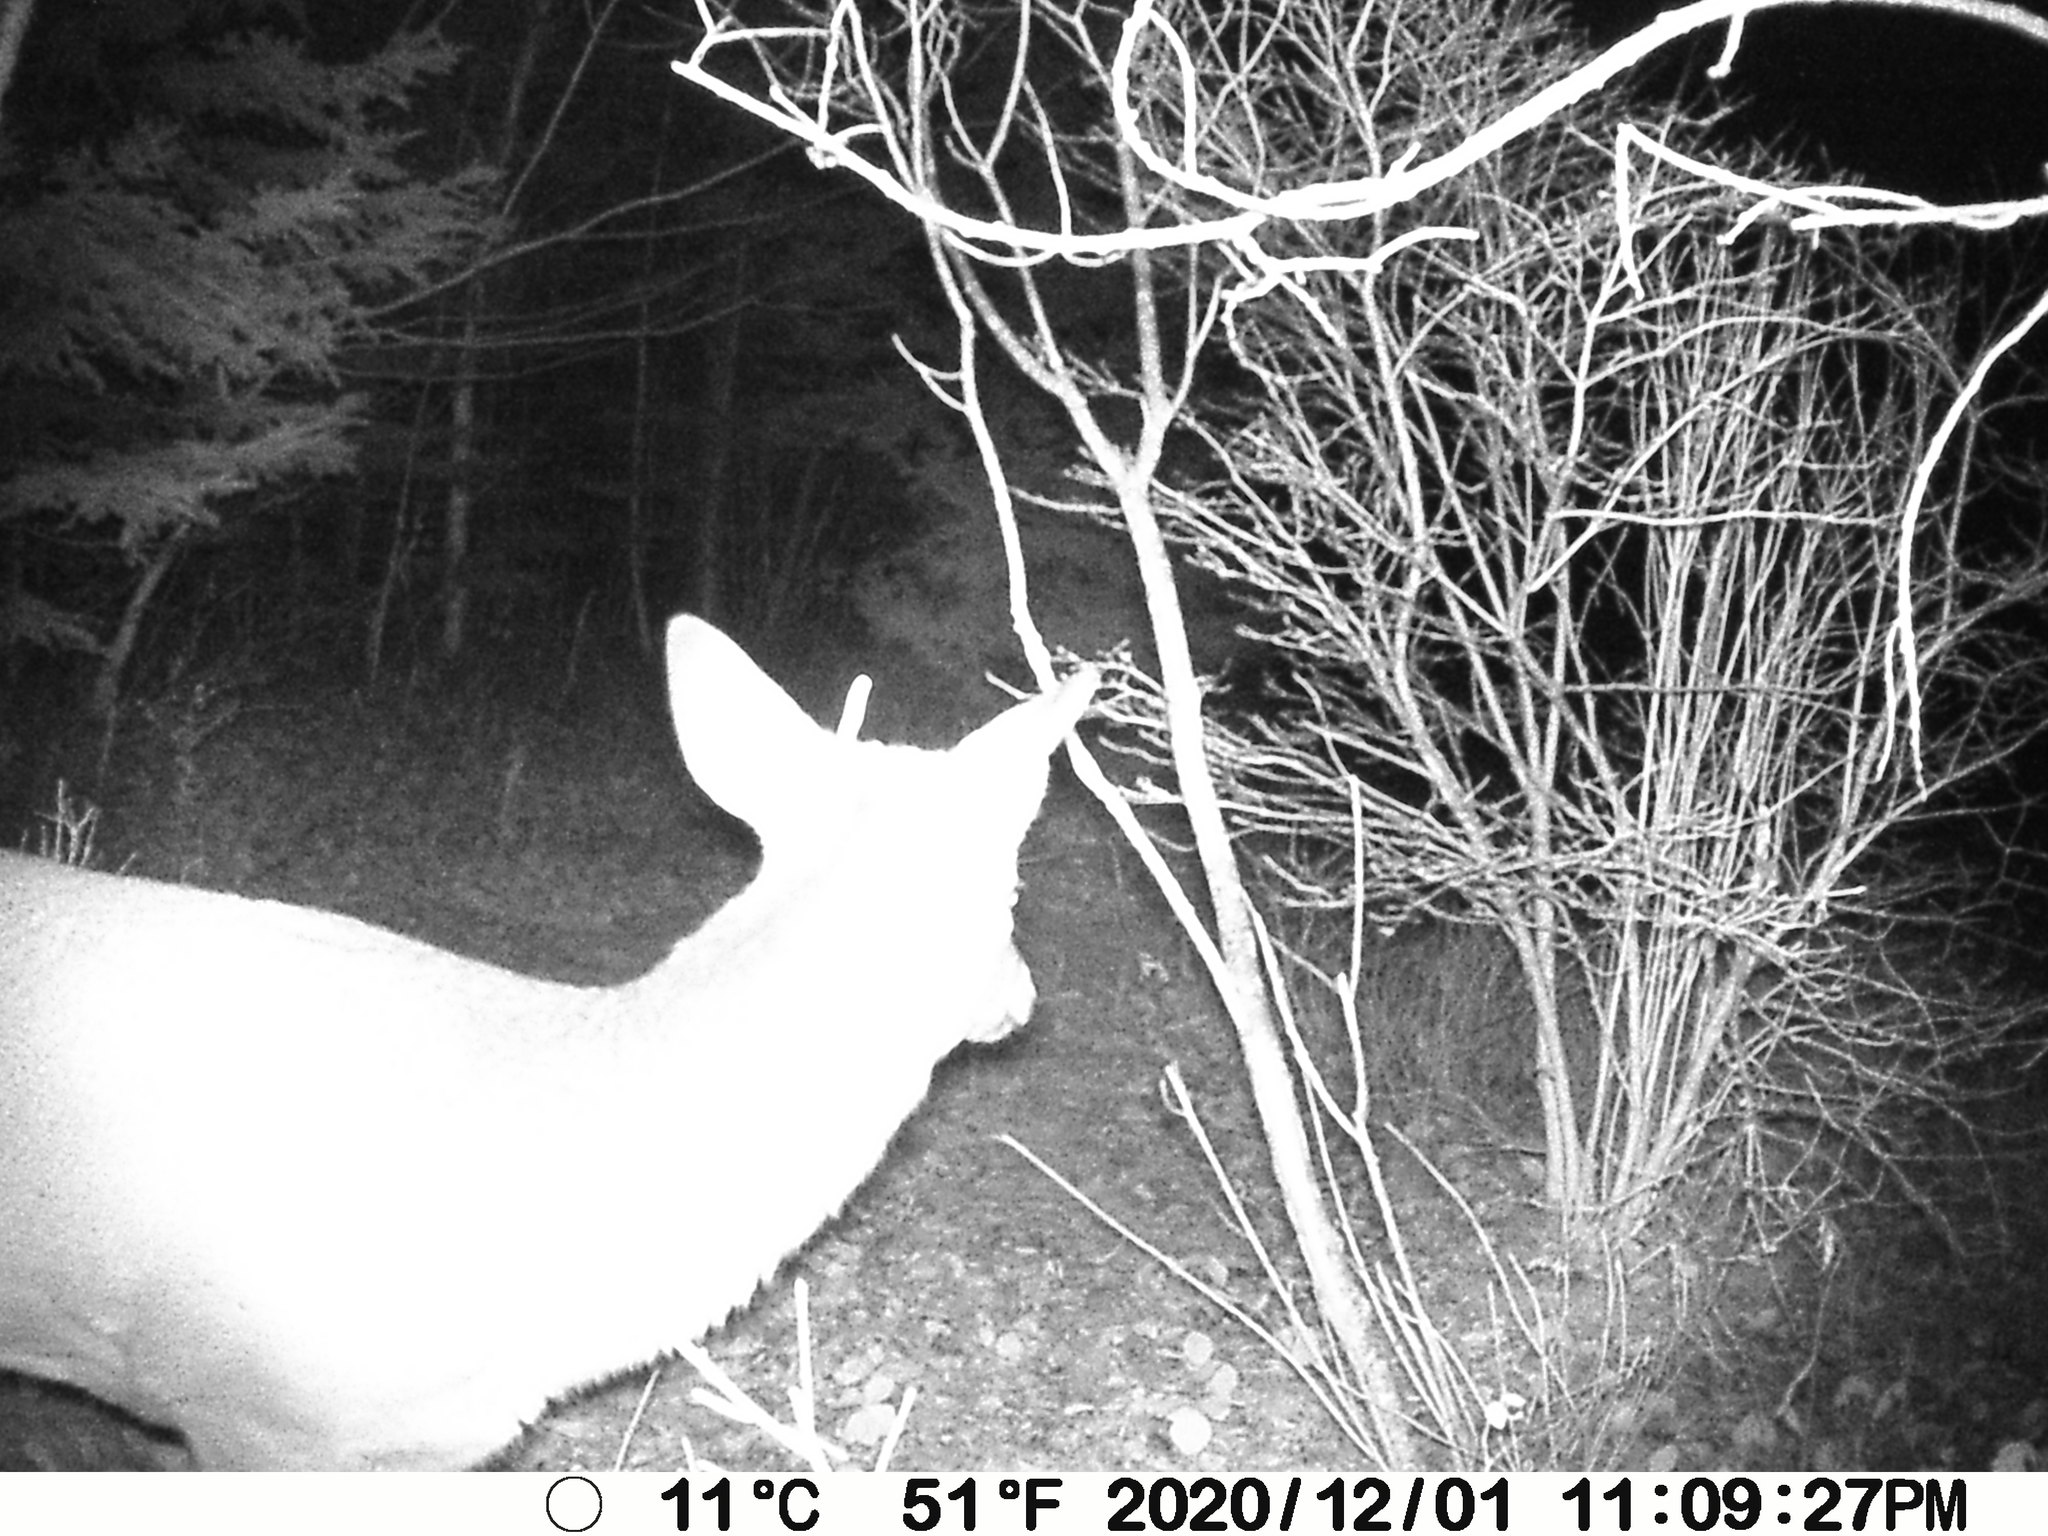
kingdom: Animalia
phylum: Chordata
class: Mammalia
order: Artiodactyla
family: Cervidae
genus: Odocoileus
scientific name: Odocoileus virginianus
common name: White-tailed deer
